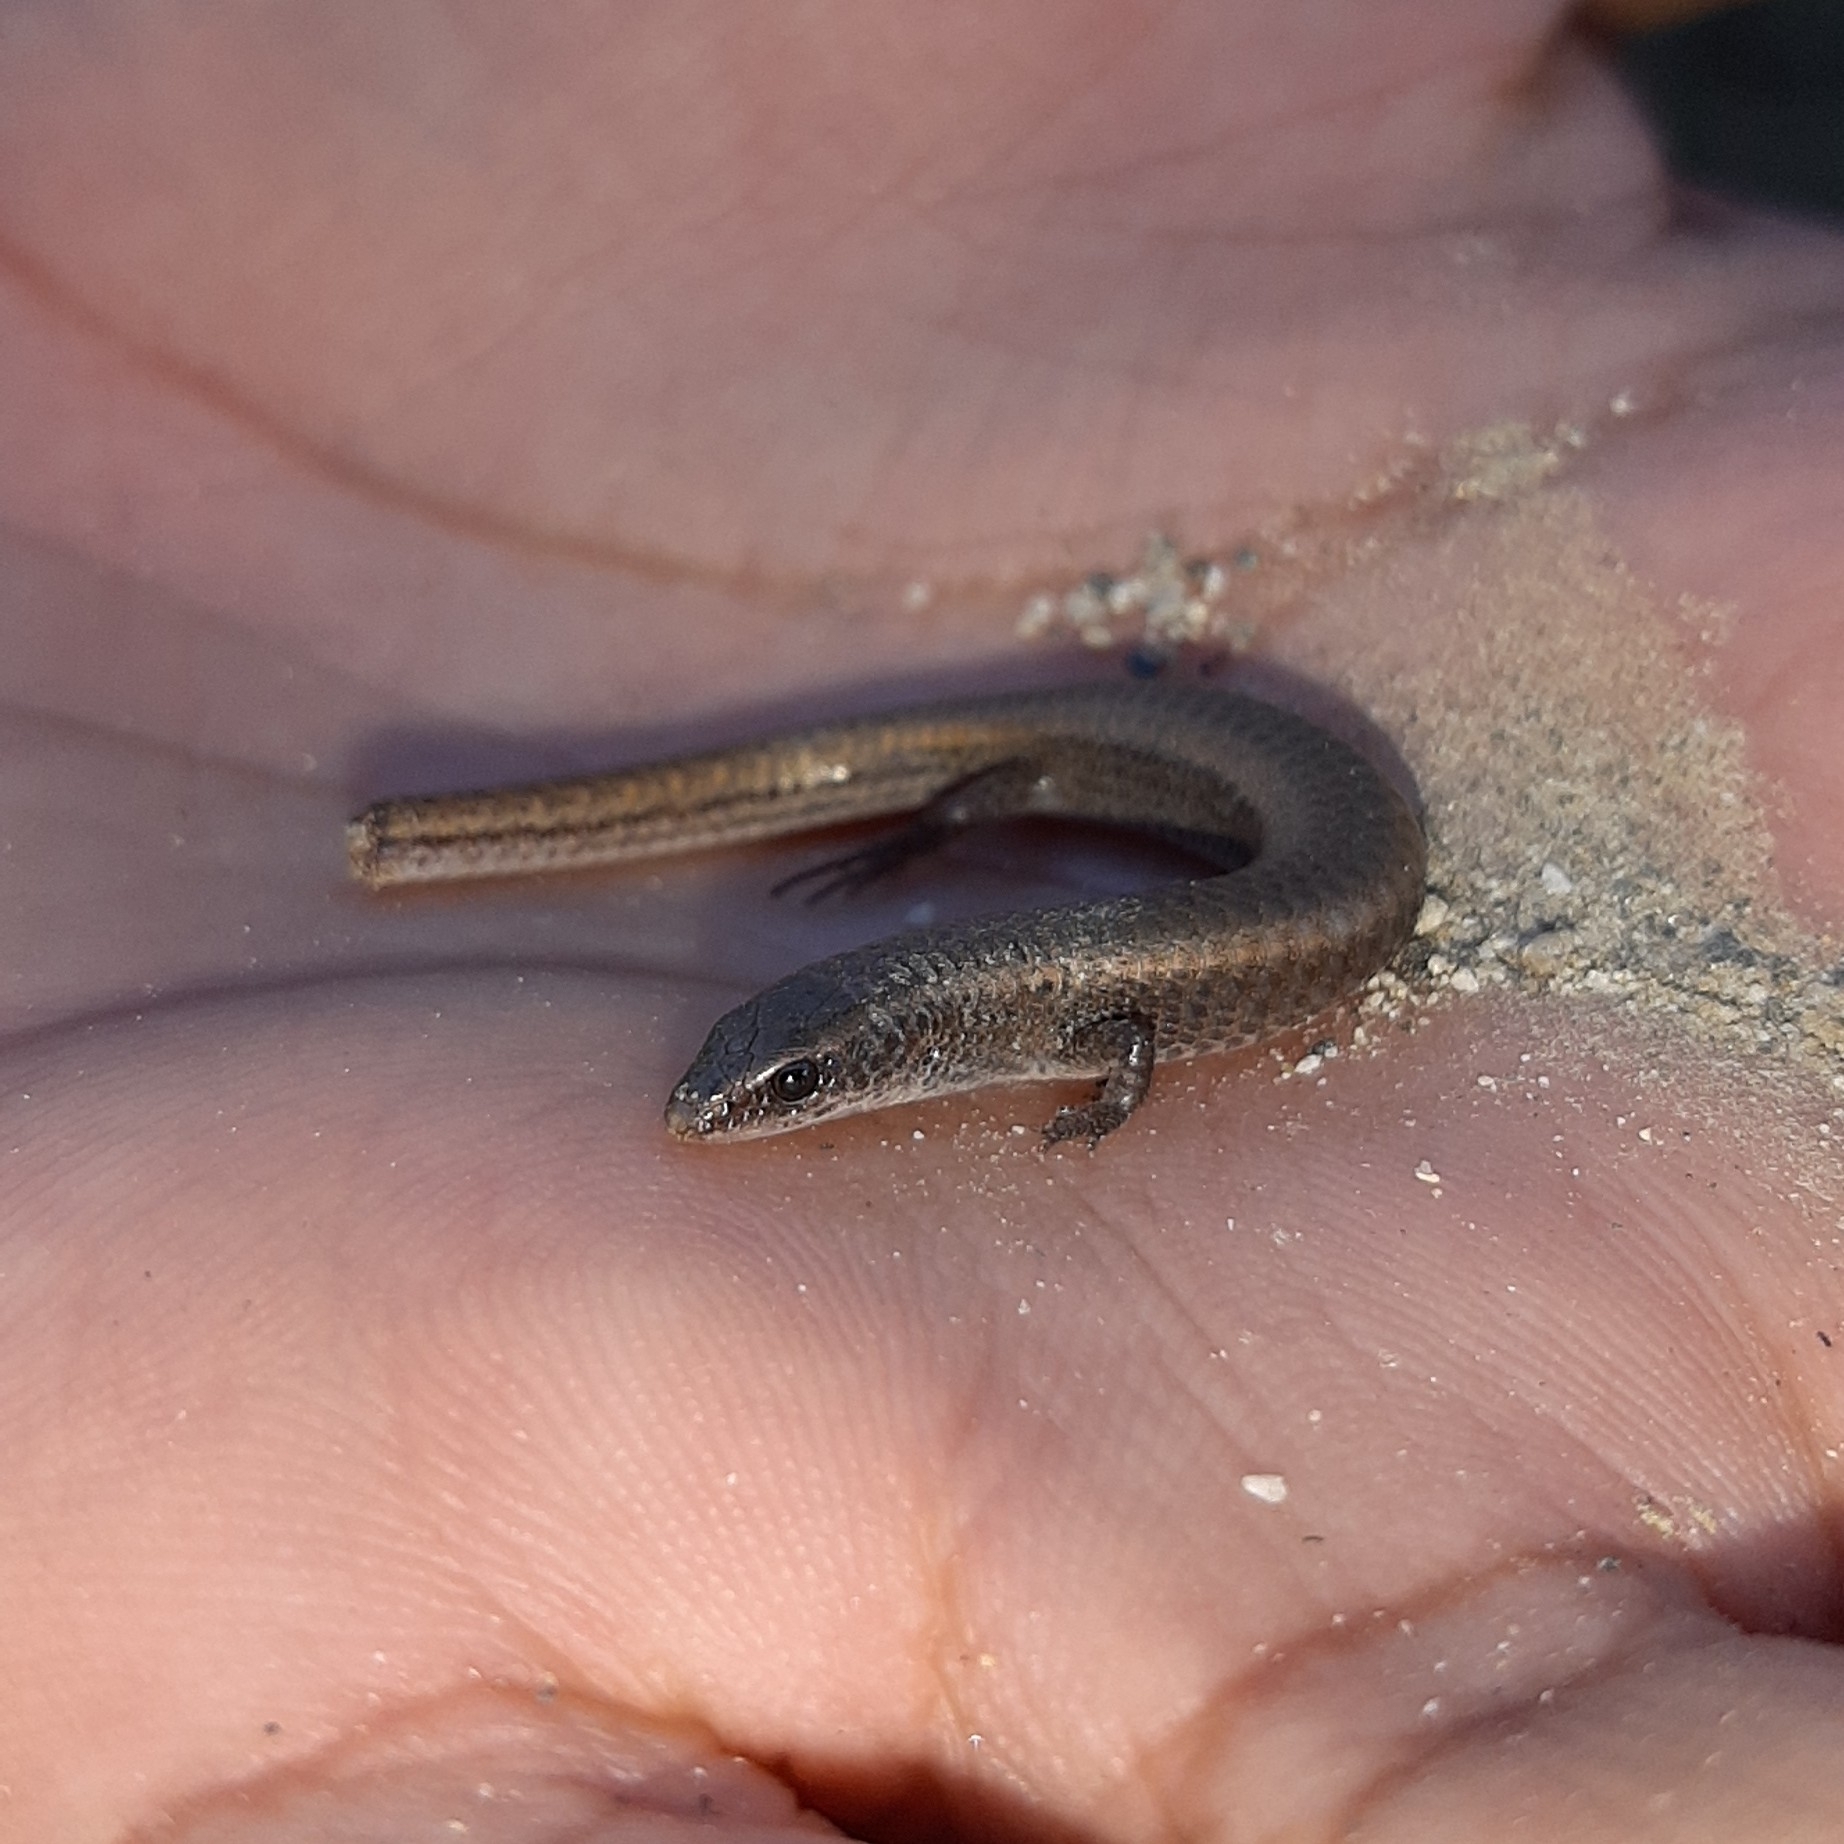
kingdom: Animalia
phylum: Chordata
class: Squamata
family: Gymnophthalmidae
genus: Gymnophthalmus
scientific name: Gymnophthalmus speciosus
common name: Golden spectacled tegu
